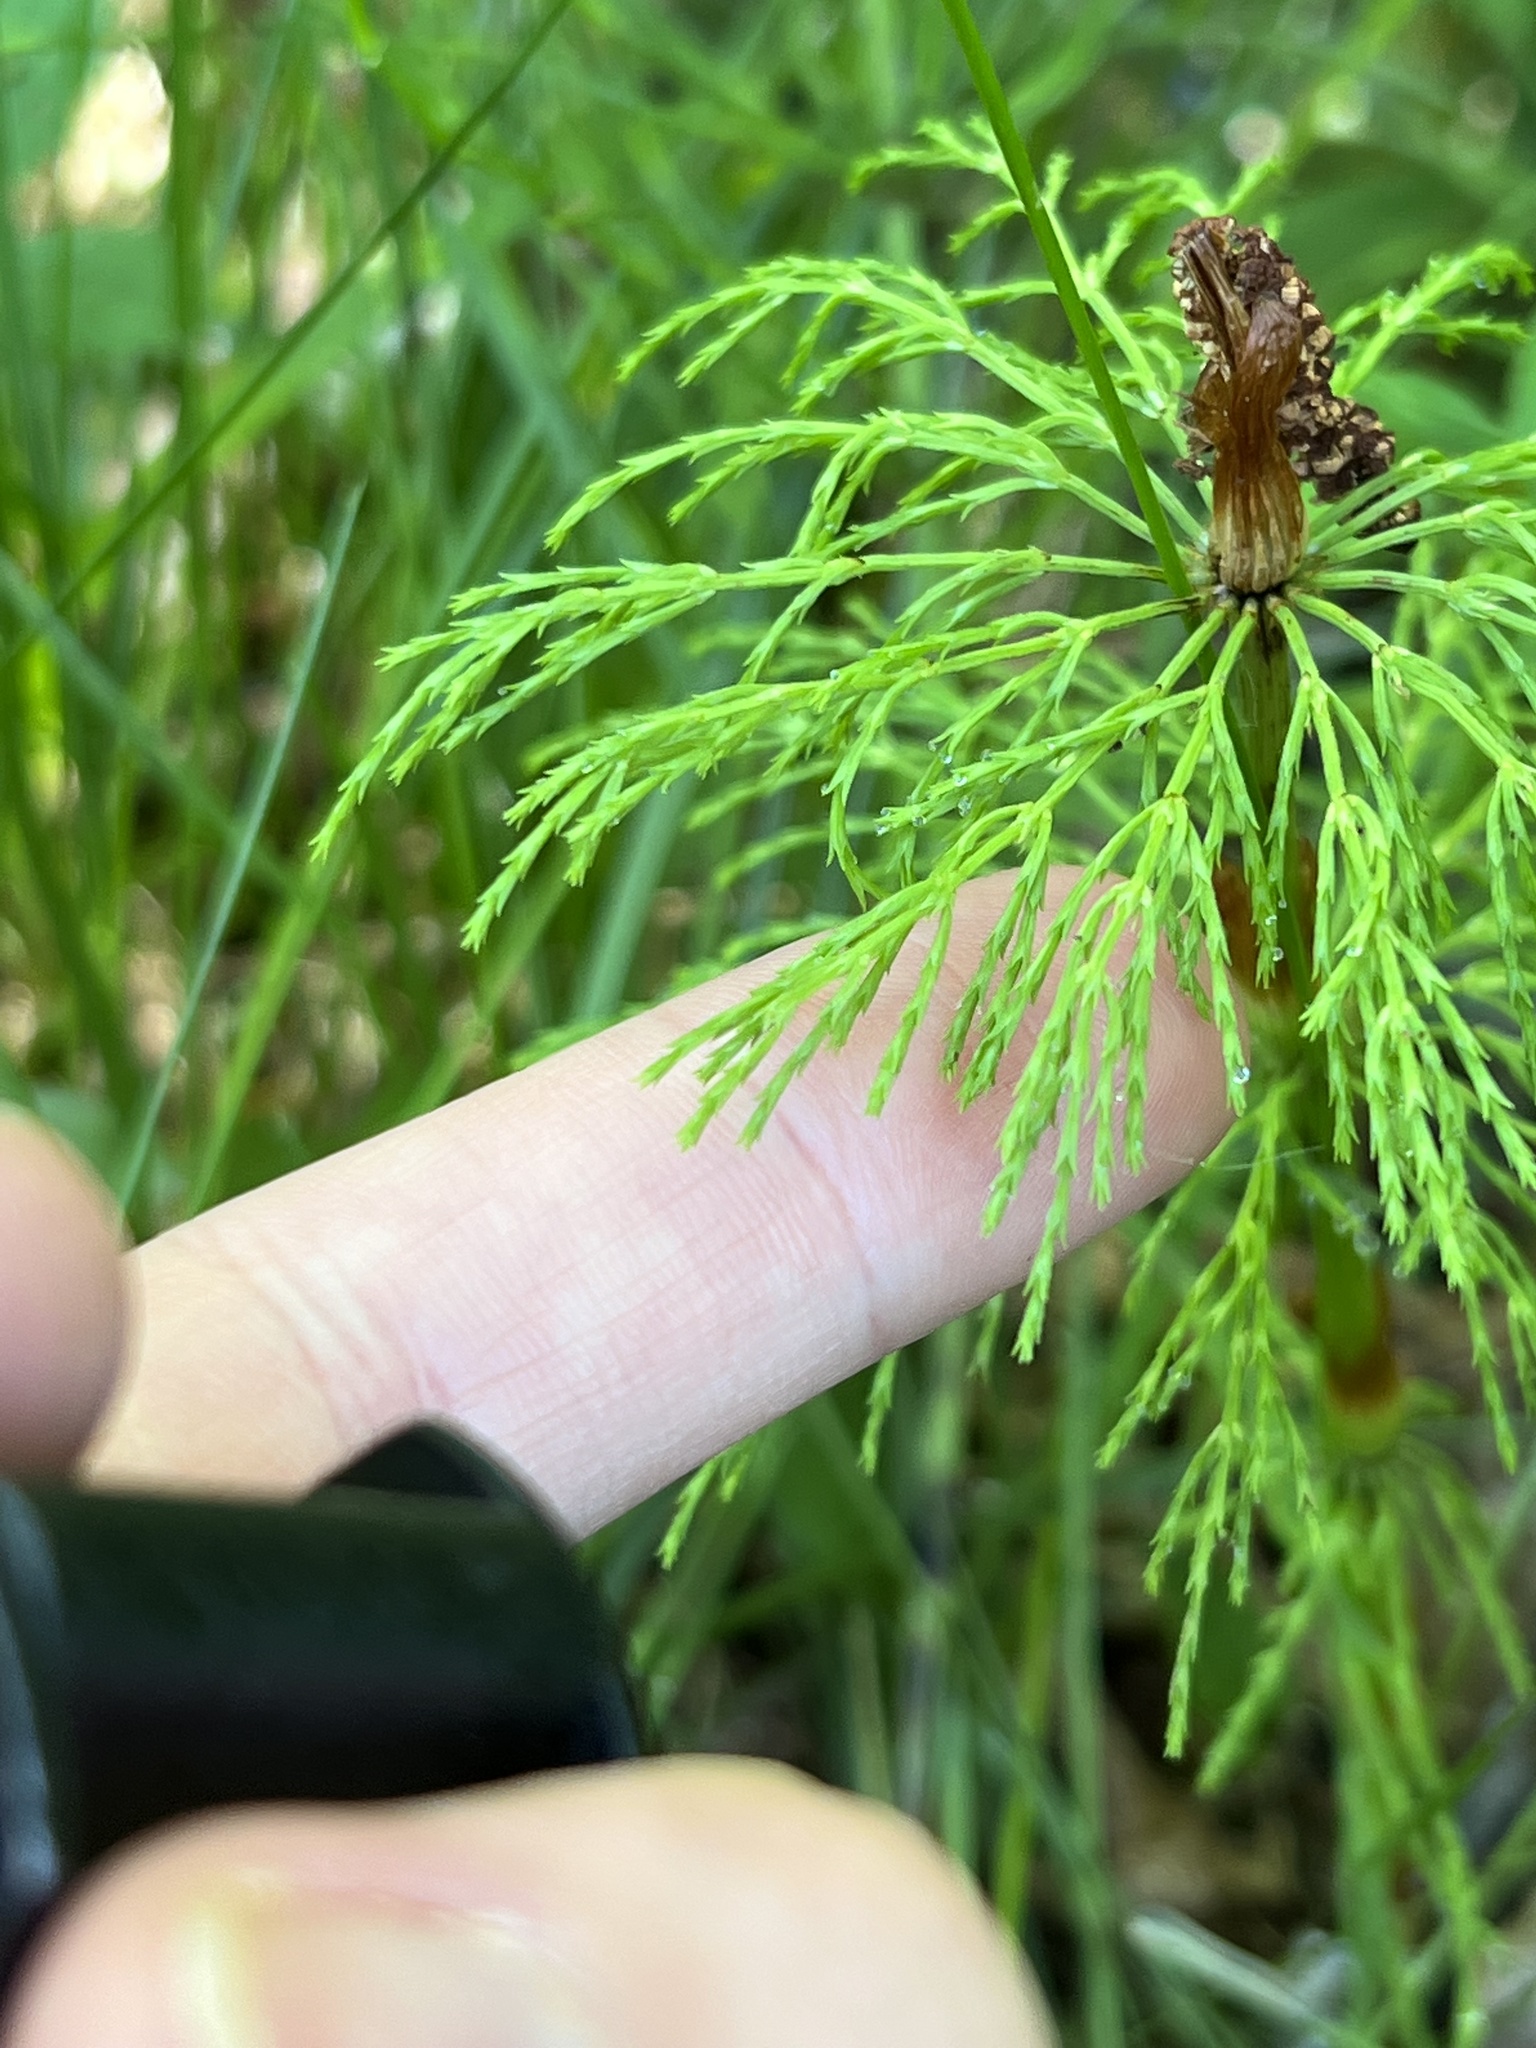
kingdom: Plantae
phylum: Tracheophyta
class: Polypodiopsida
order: Equisetales
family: Equisetaceae
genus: Equisetum
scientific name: Equisetum sylvaticum
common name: Wood horsetail
